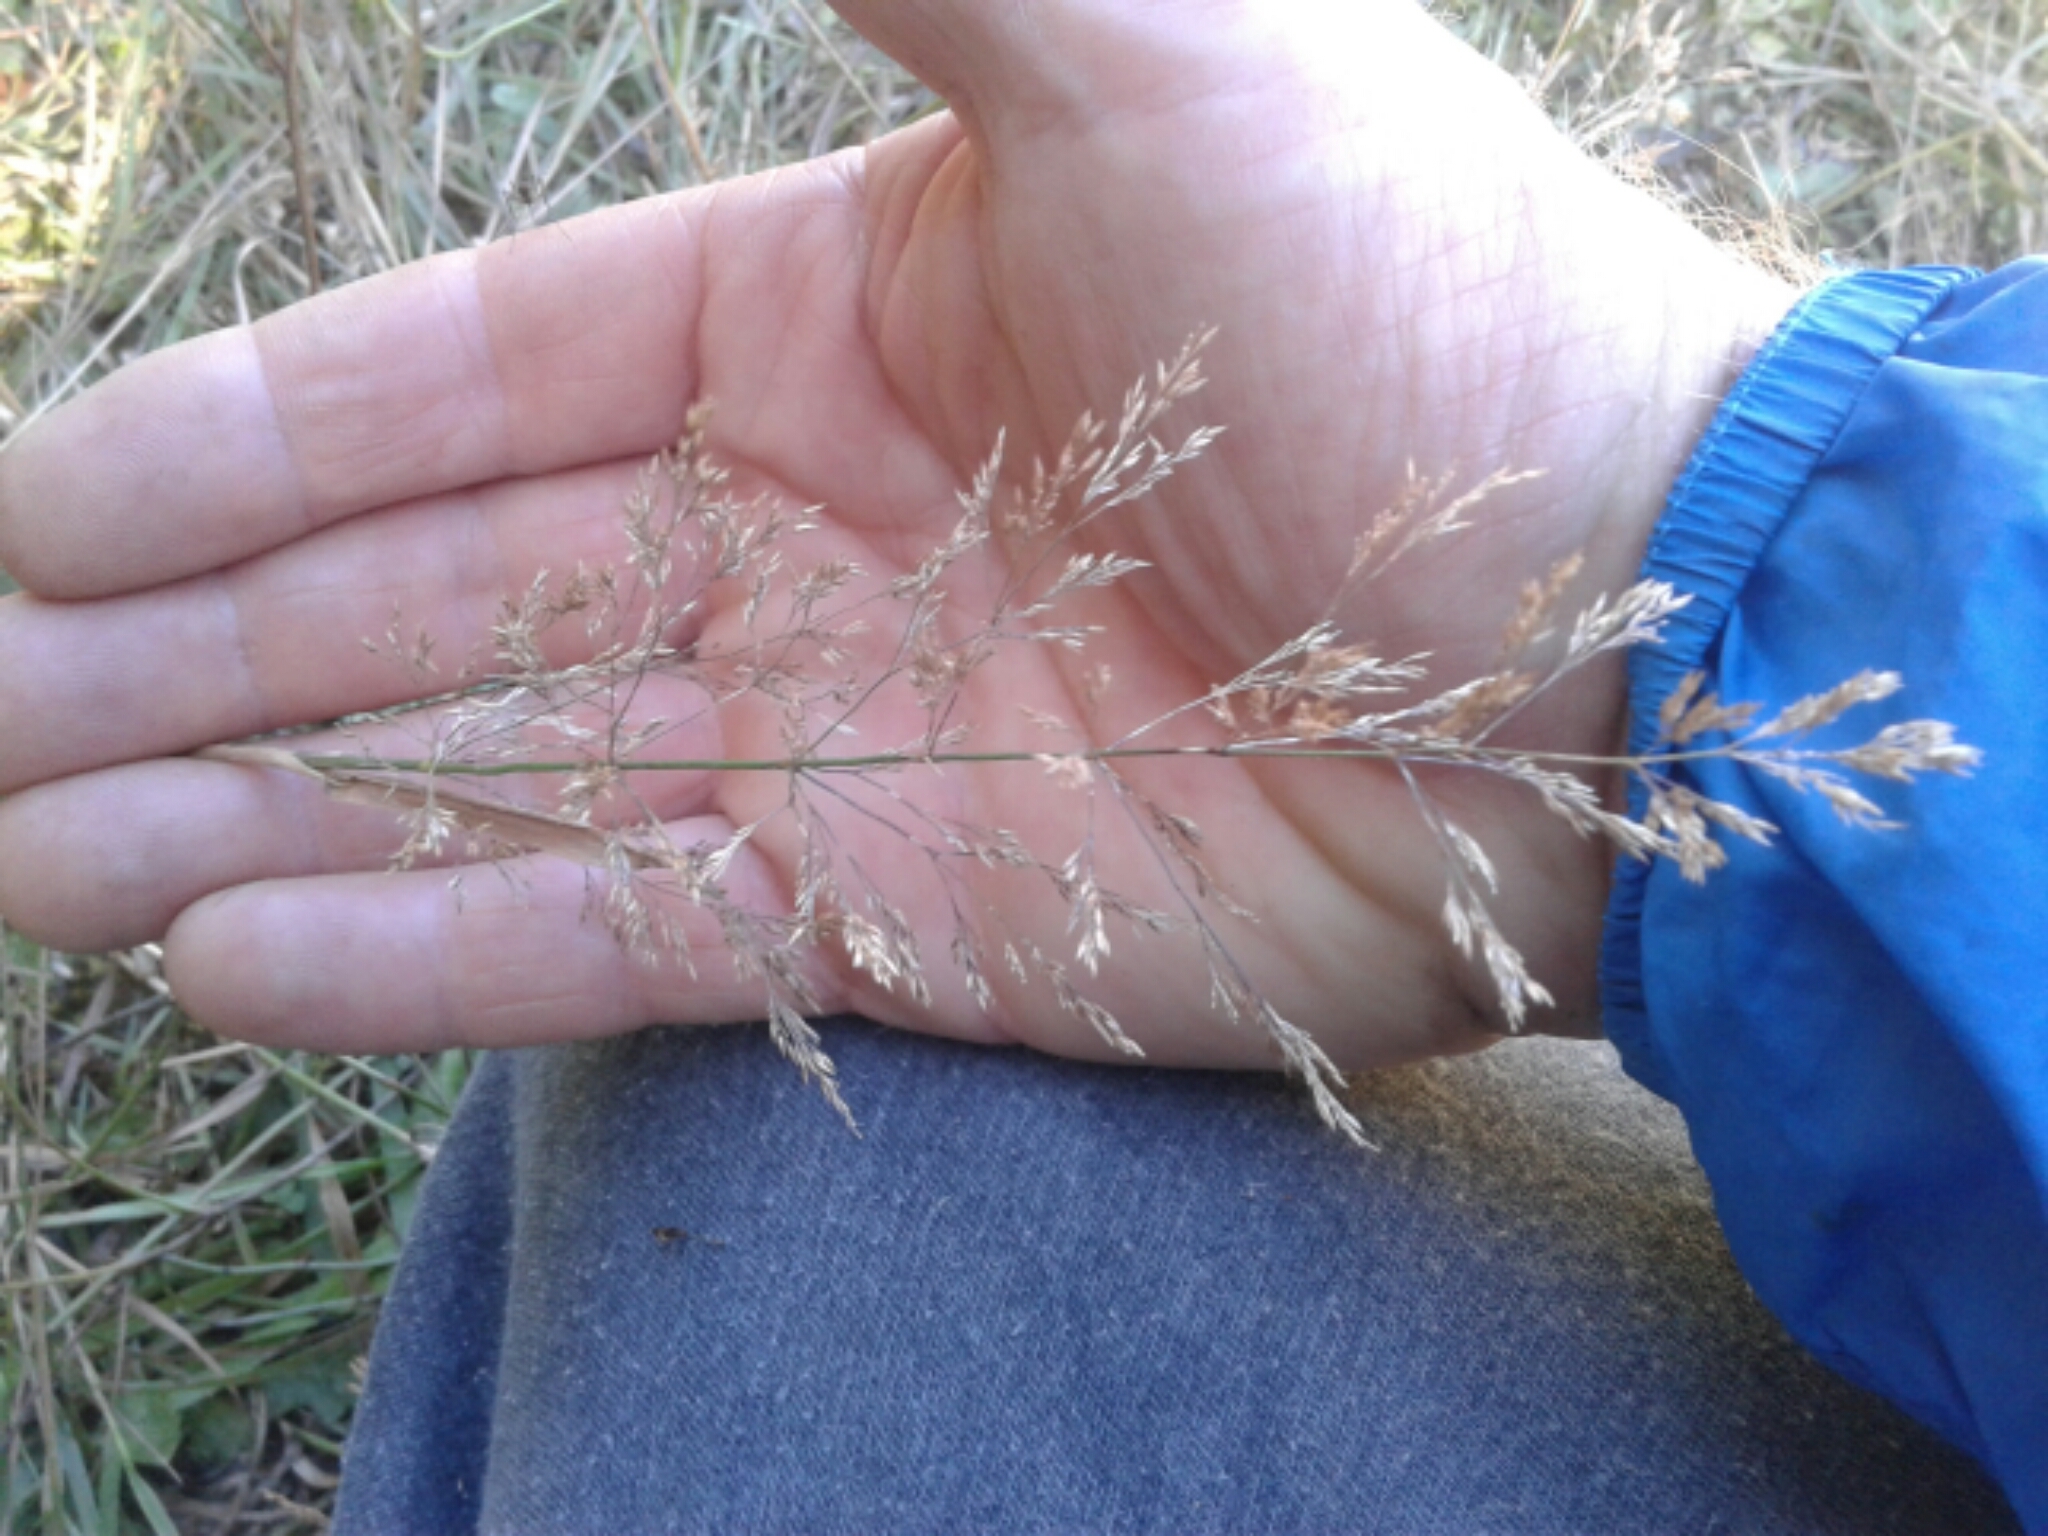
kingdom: Plantae
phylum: Tracheophyta
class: Liliopsida
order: Poales
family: Poaceae
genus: Agrostis
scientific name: Agrostis
